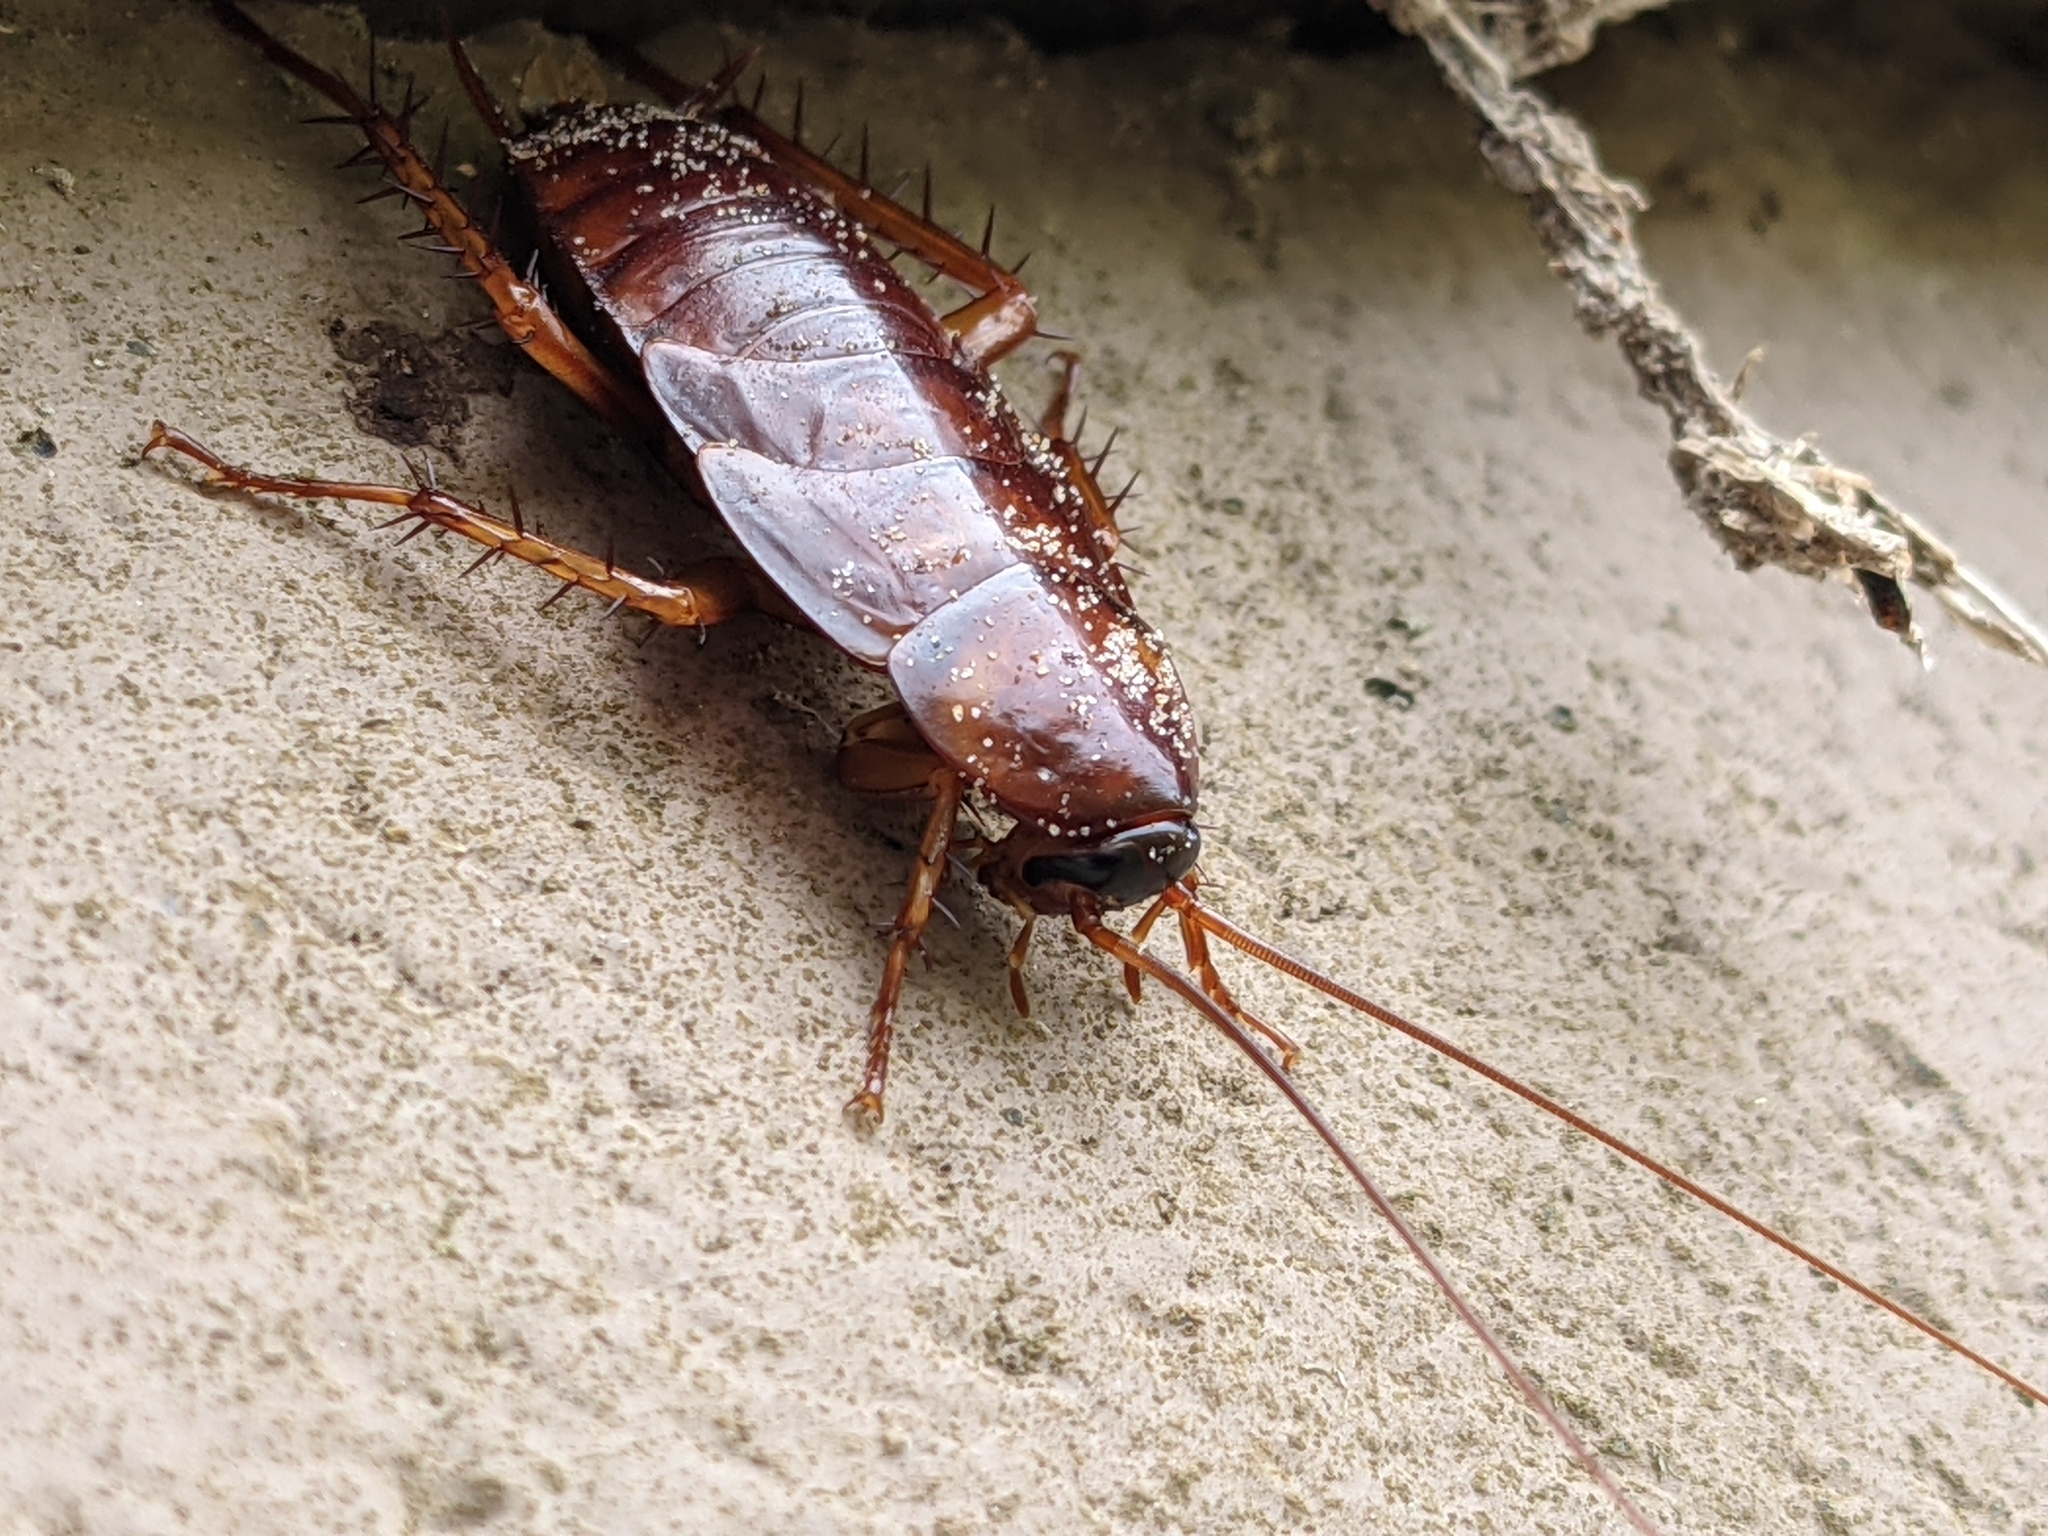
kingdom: Animalia
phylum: Arthropoda
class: Insecta
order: Blattodea
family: Blattidae
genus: Periplaneta
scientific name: Periplaneta americana
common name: American cockroach
